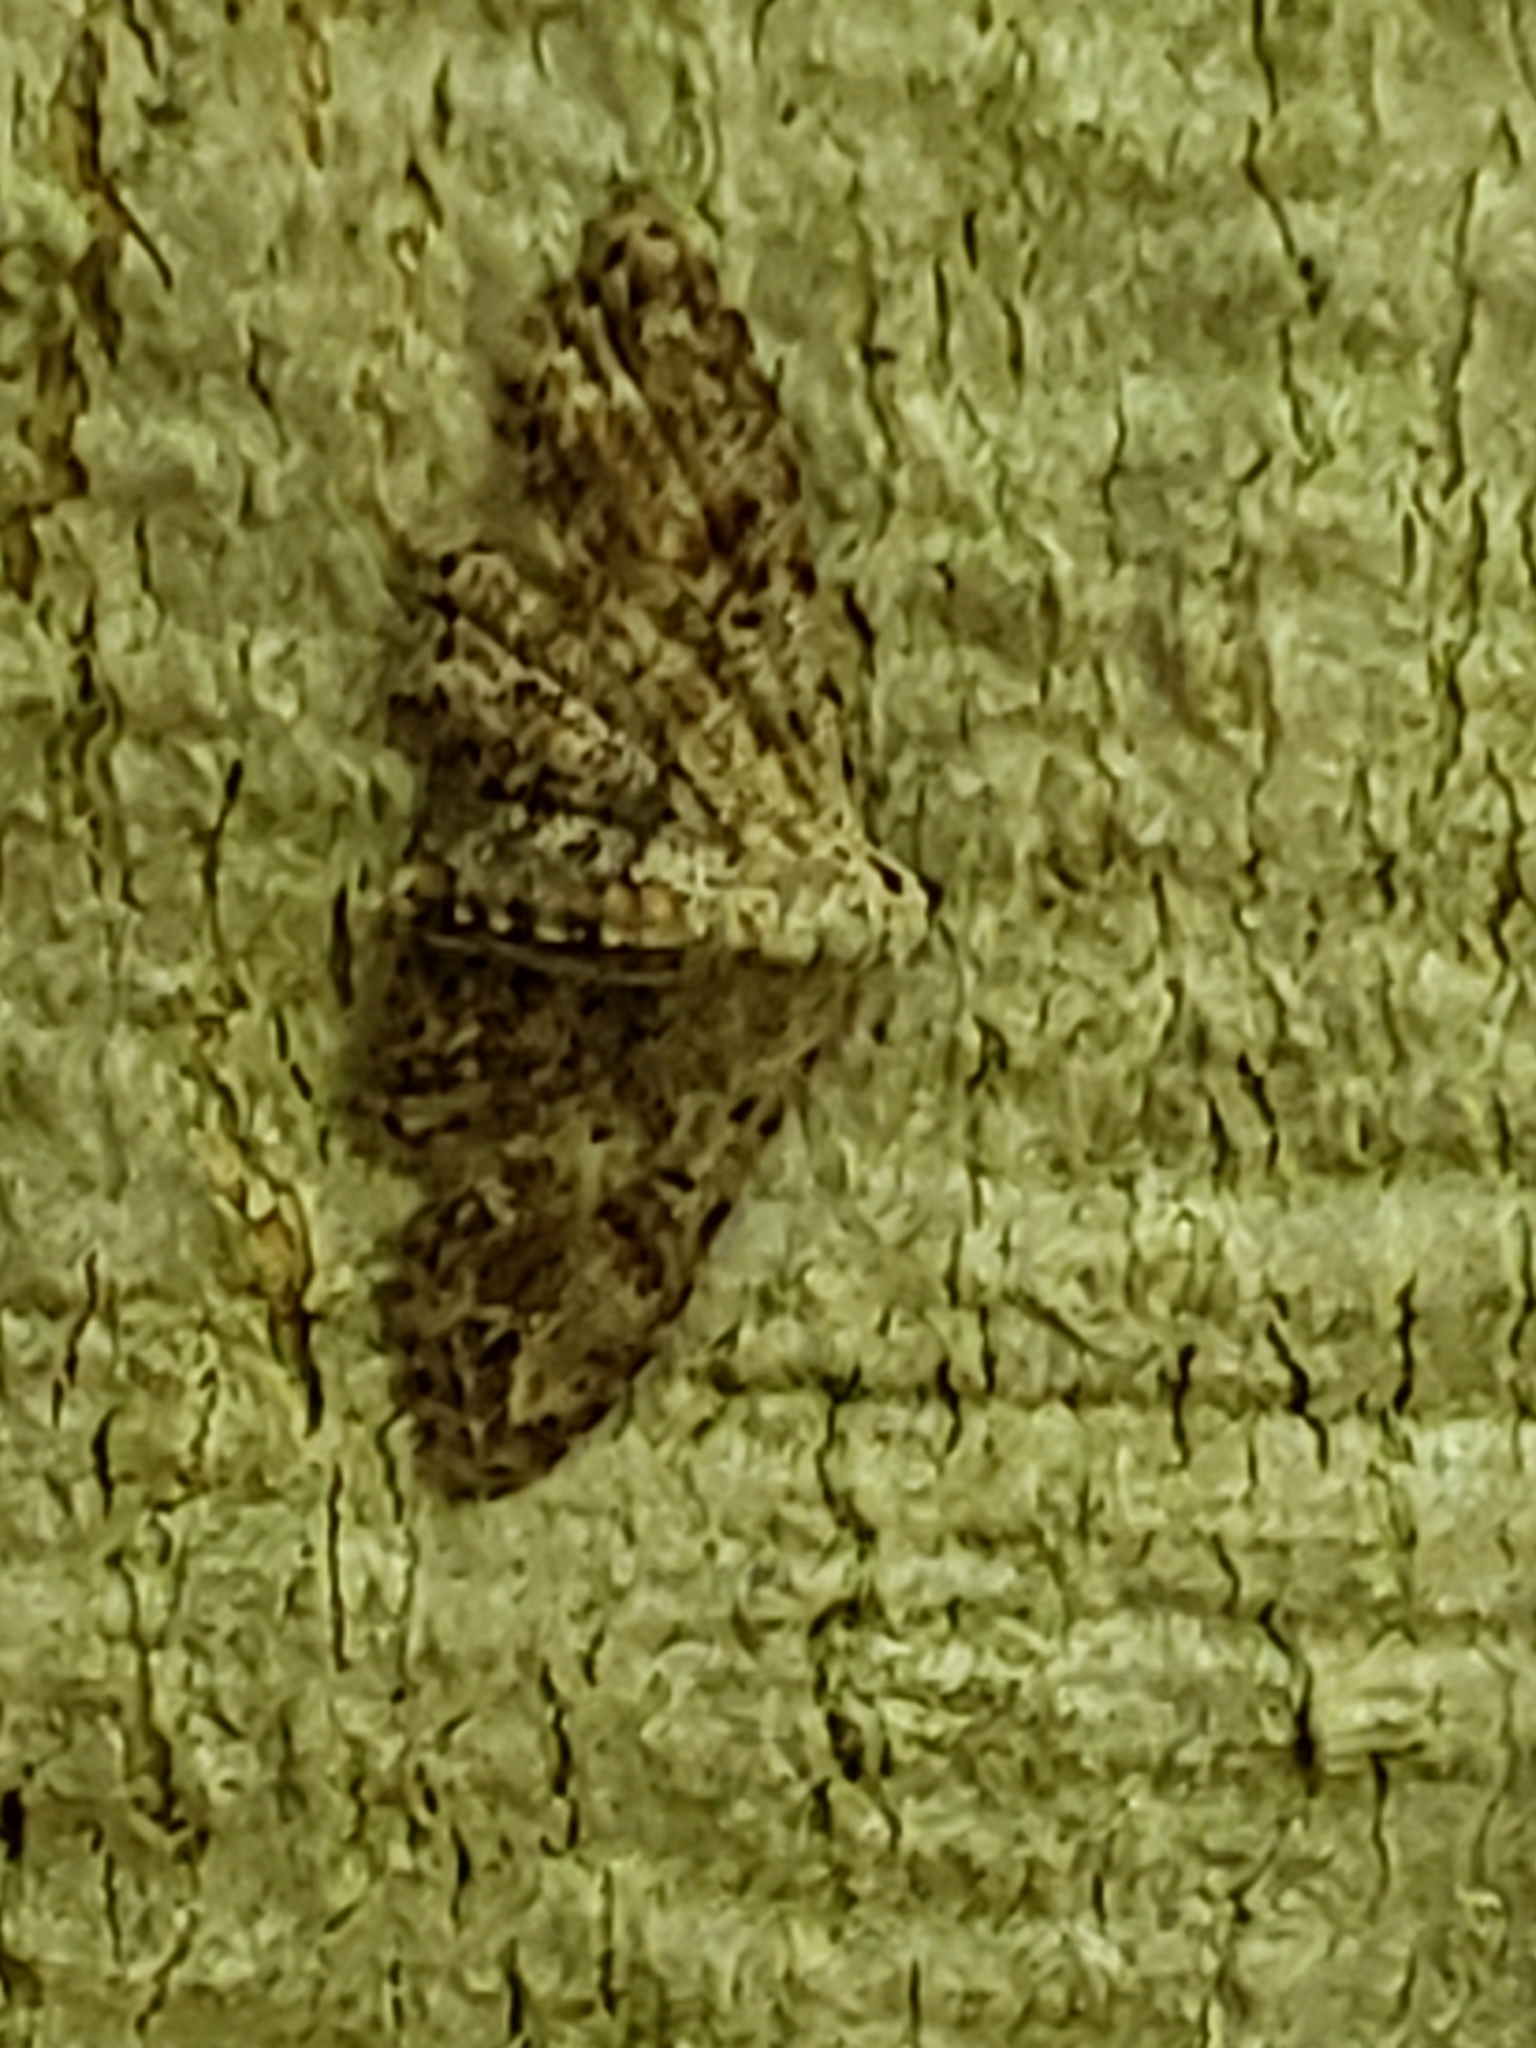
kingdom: Animalia
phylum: Arthropoda
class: Insecta
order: Lepidoptera
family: Erebidae
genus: Sigela
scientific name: Sigela brauneata
